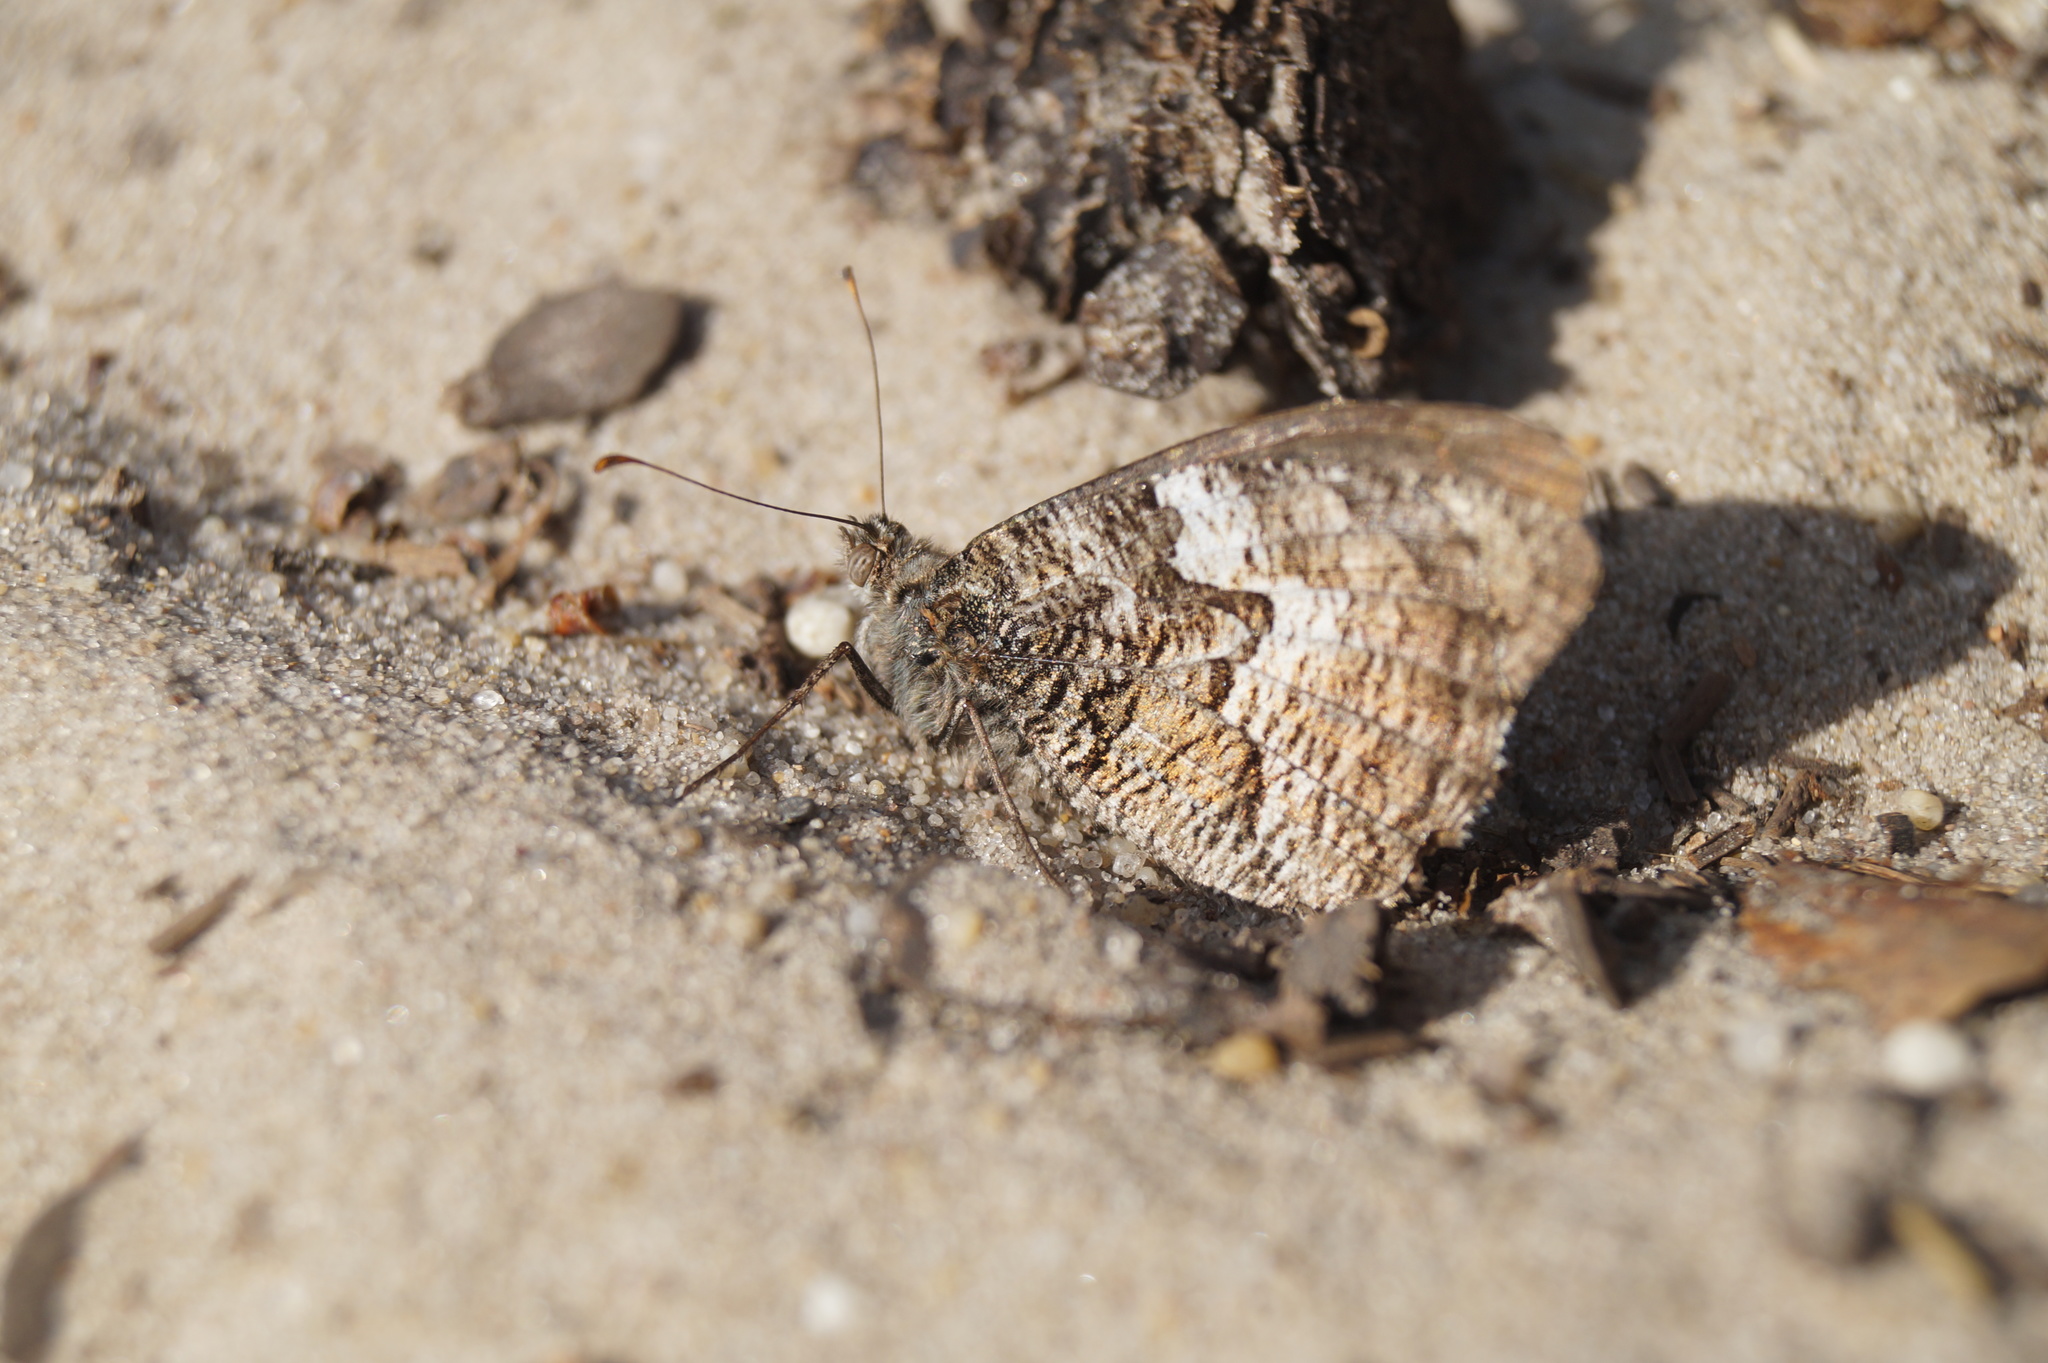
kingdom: Animalia
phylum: Arthropoda
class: Insecta
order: Lepidoptera
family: Nymphalidae
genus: Hipparchia
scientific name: Hipparchia semele
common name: Grayling
